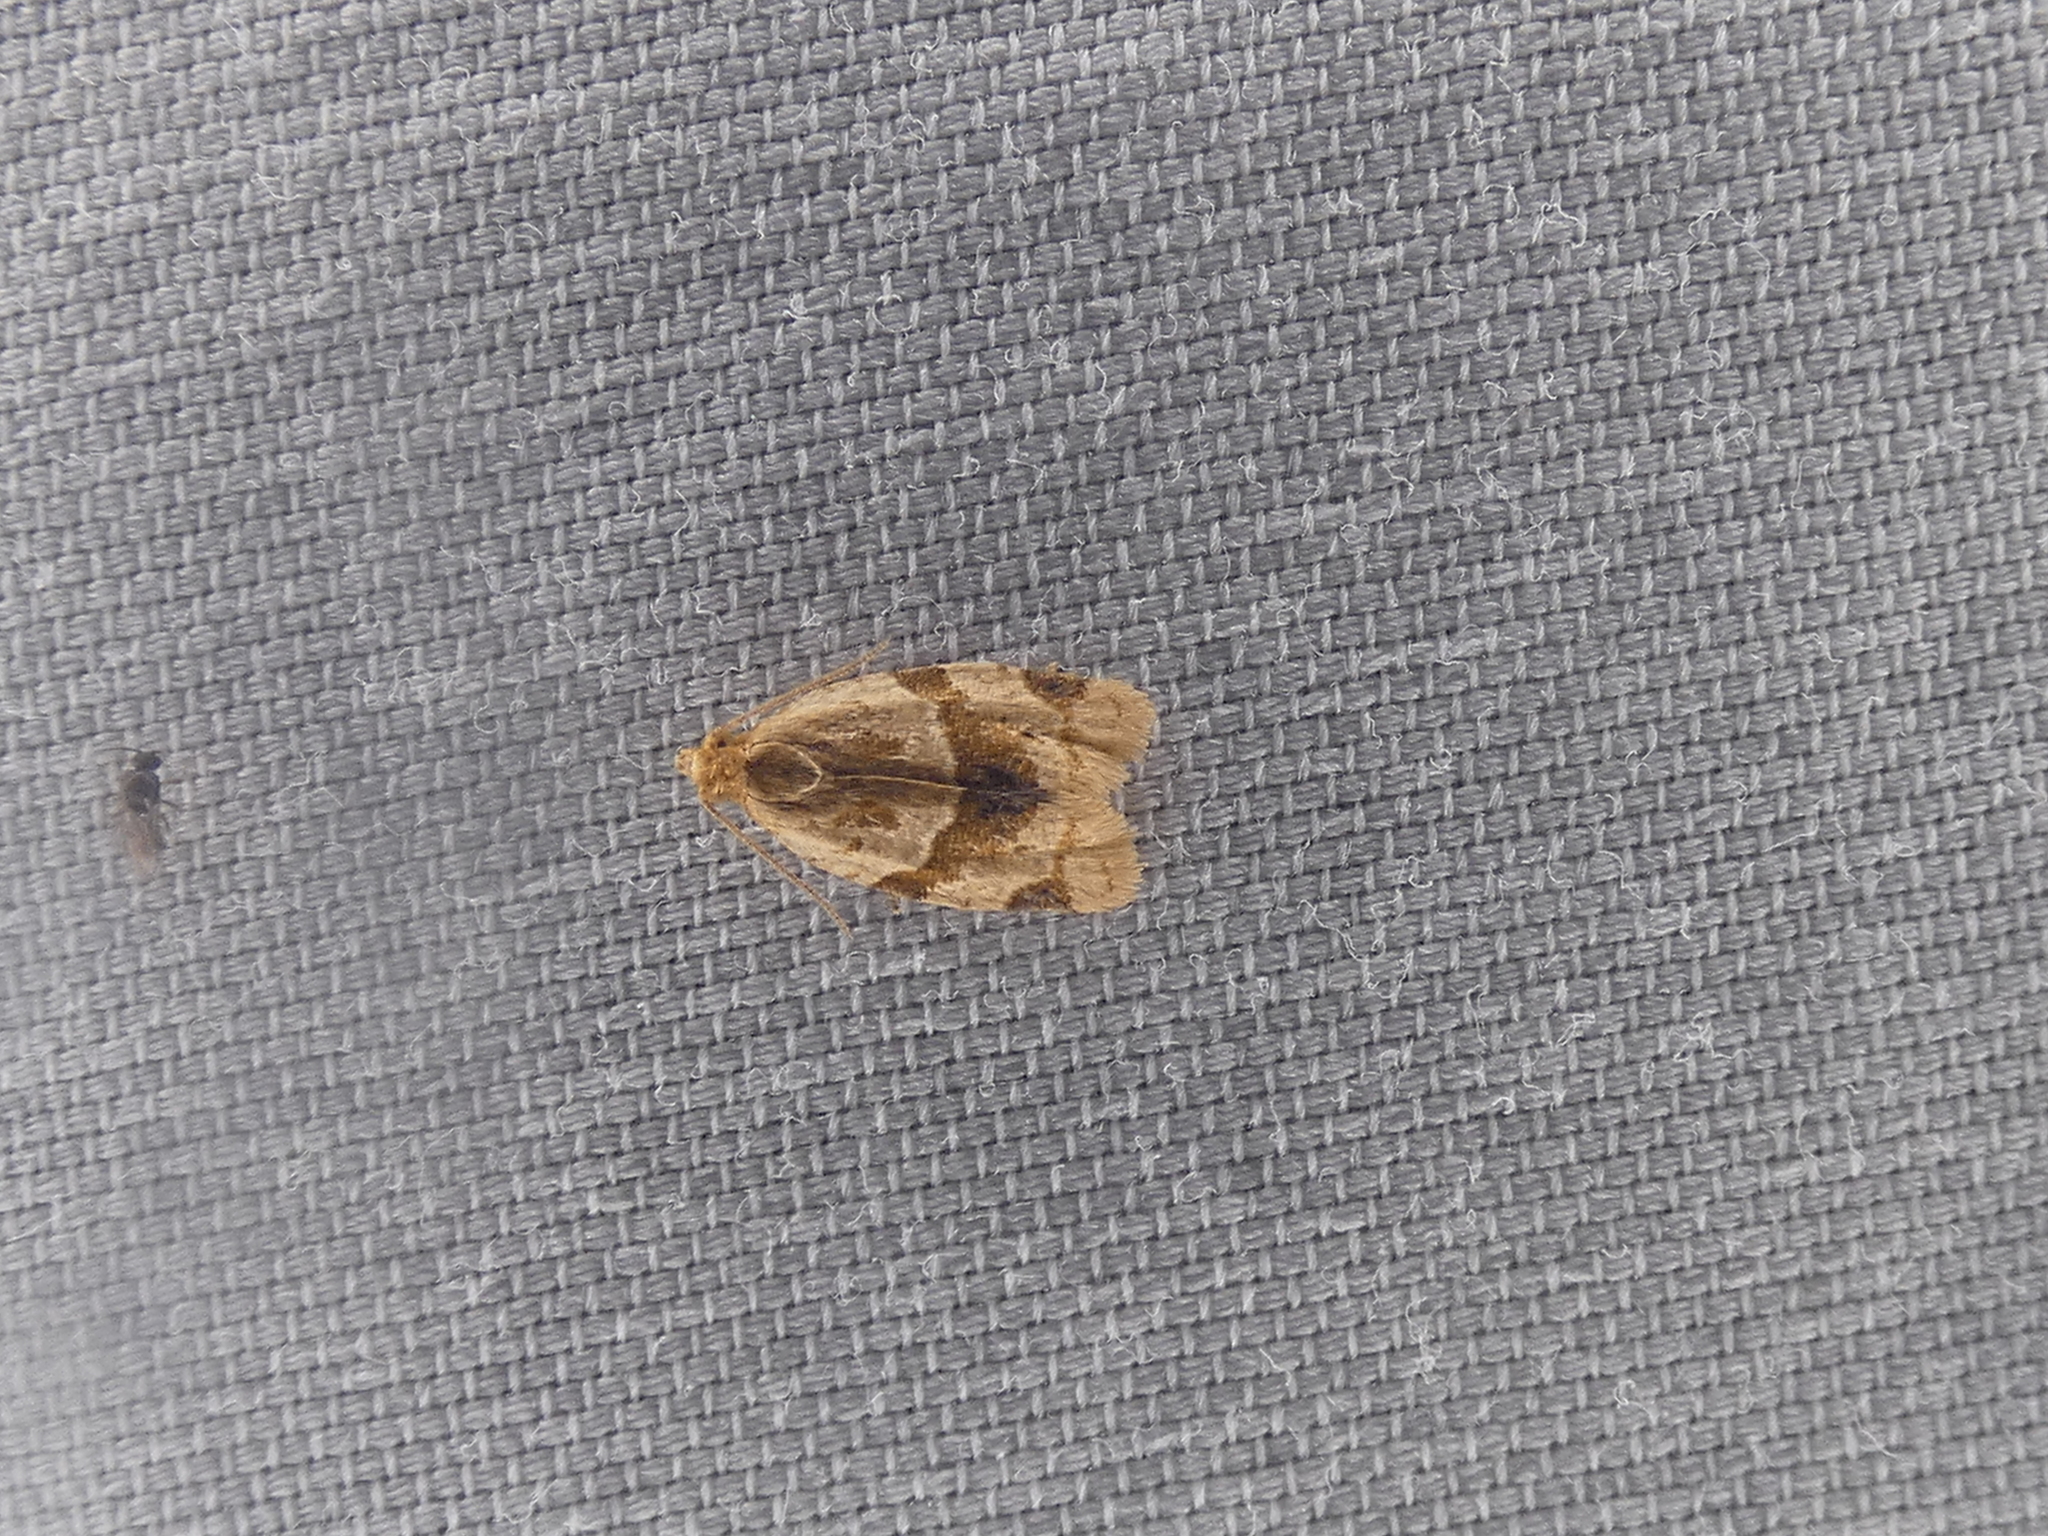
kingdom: Animalia
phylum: Arthropoda
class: Insecta
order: Lepidoptera
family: Tortricidae
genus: Clepsis
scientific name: Clepsis peritana
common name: Garden tortrix
